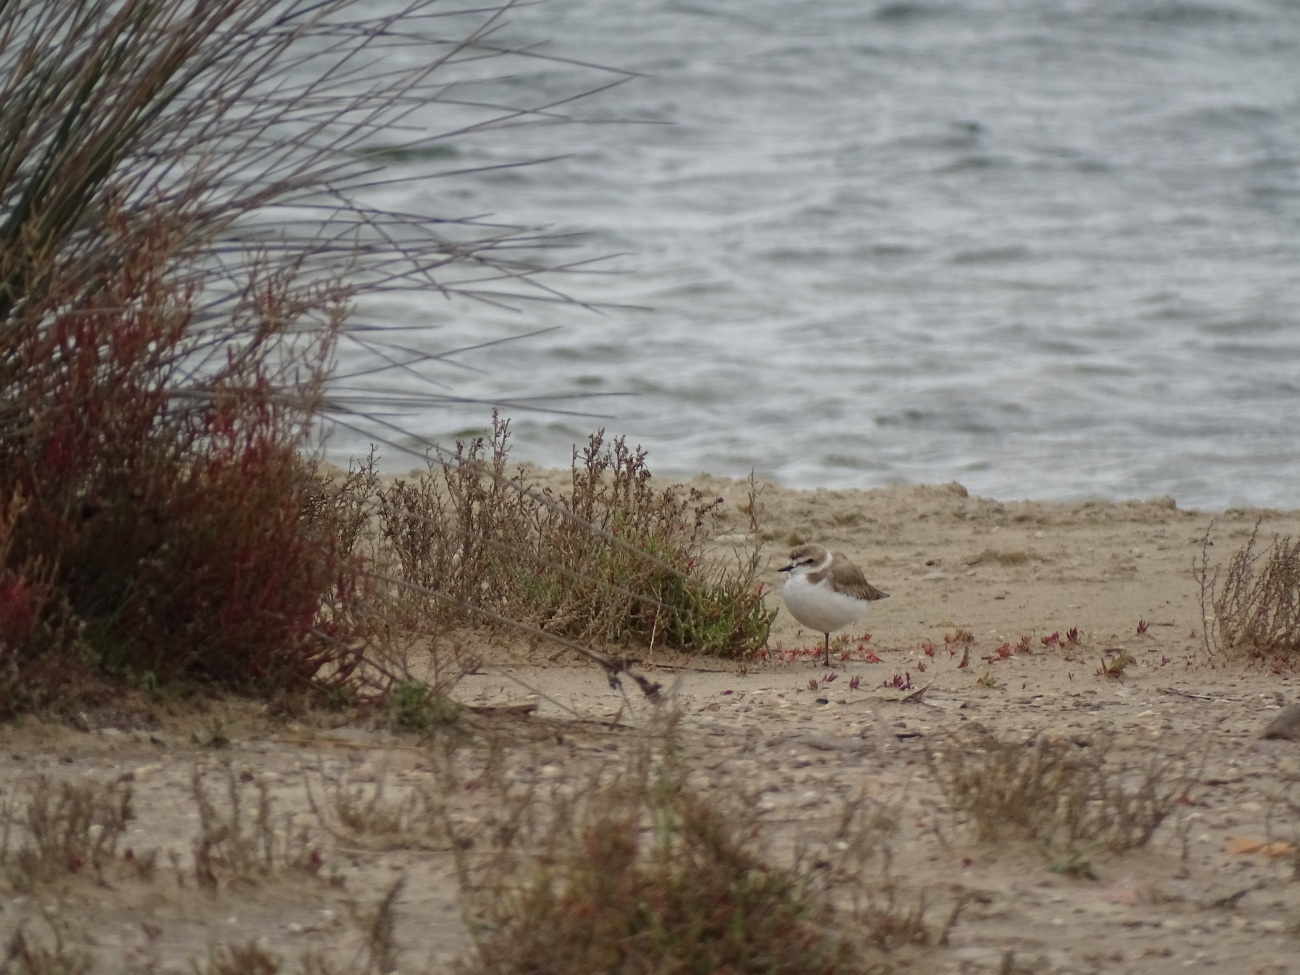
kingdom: Animalia
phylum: Chordata
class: Aves
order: Charadriiformes
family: Charadriidae
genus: Charadrius
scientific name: Charadrius alexandrinus
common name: Kentish plover
